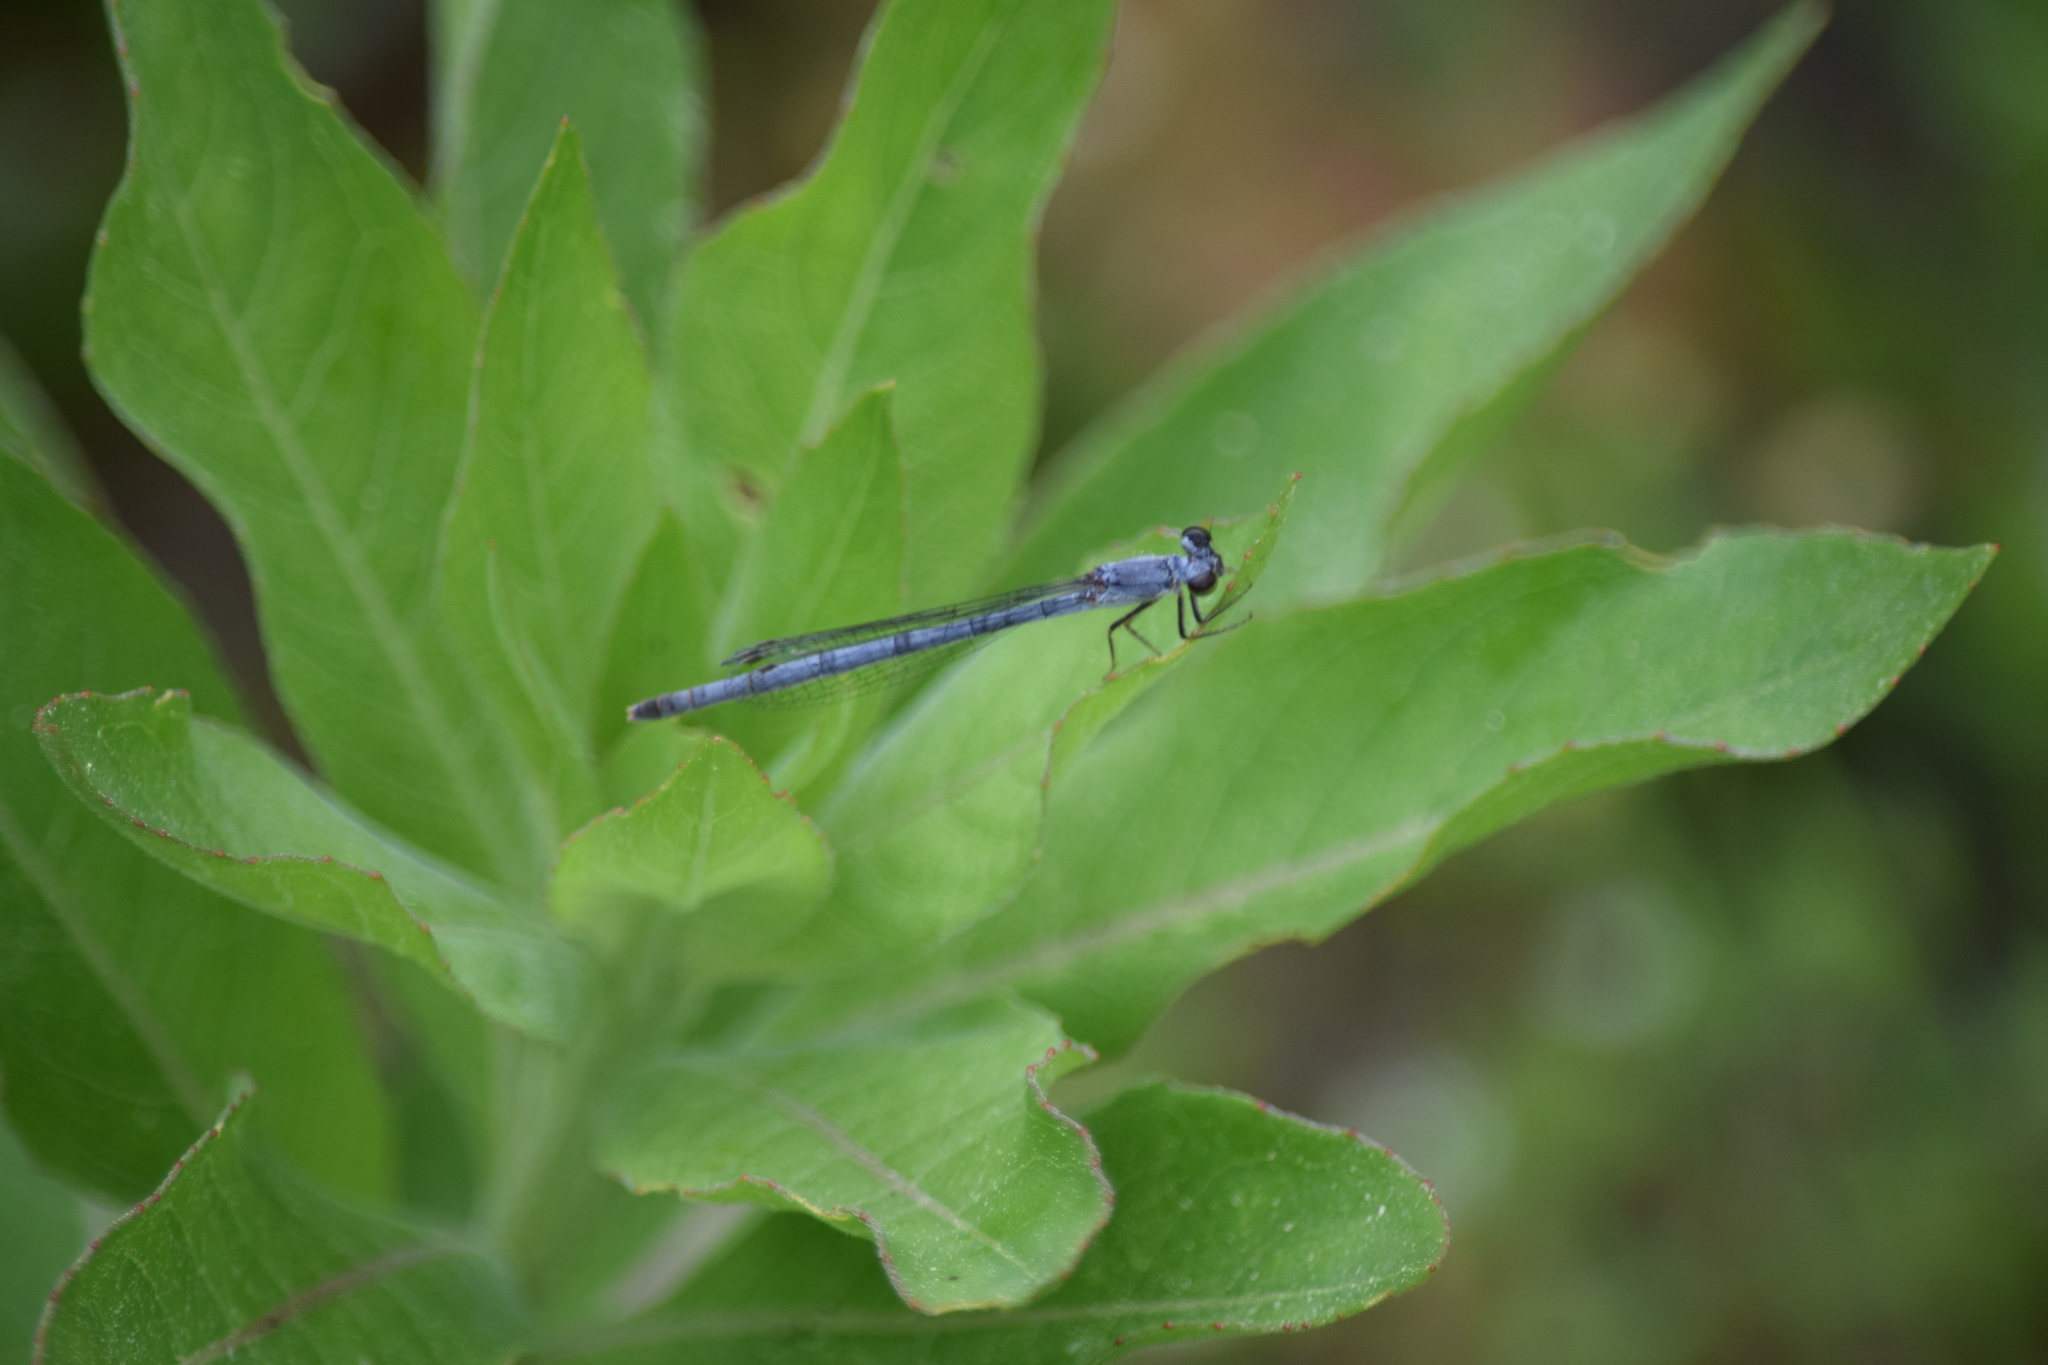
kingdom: Animalia
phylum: Arthropoda
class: Insecta
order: Odonata
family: Coenagrionidae
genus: Ischnura
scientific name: Ischnura posita
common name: Fragile forktail
